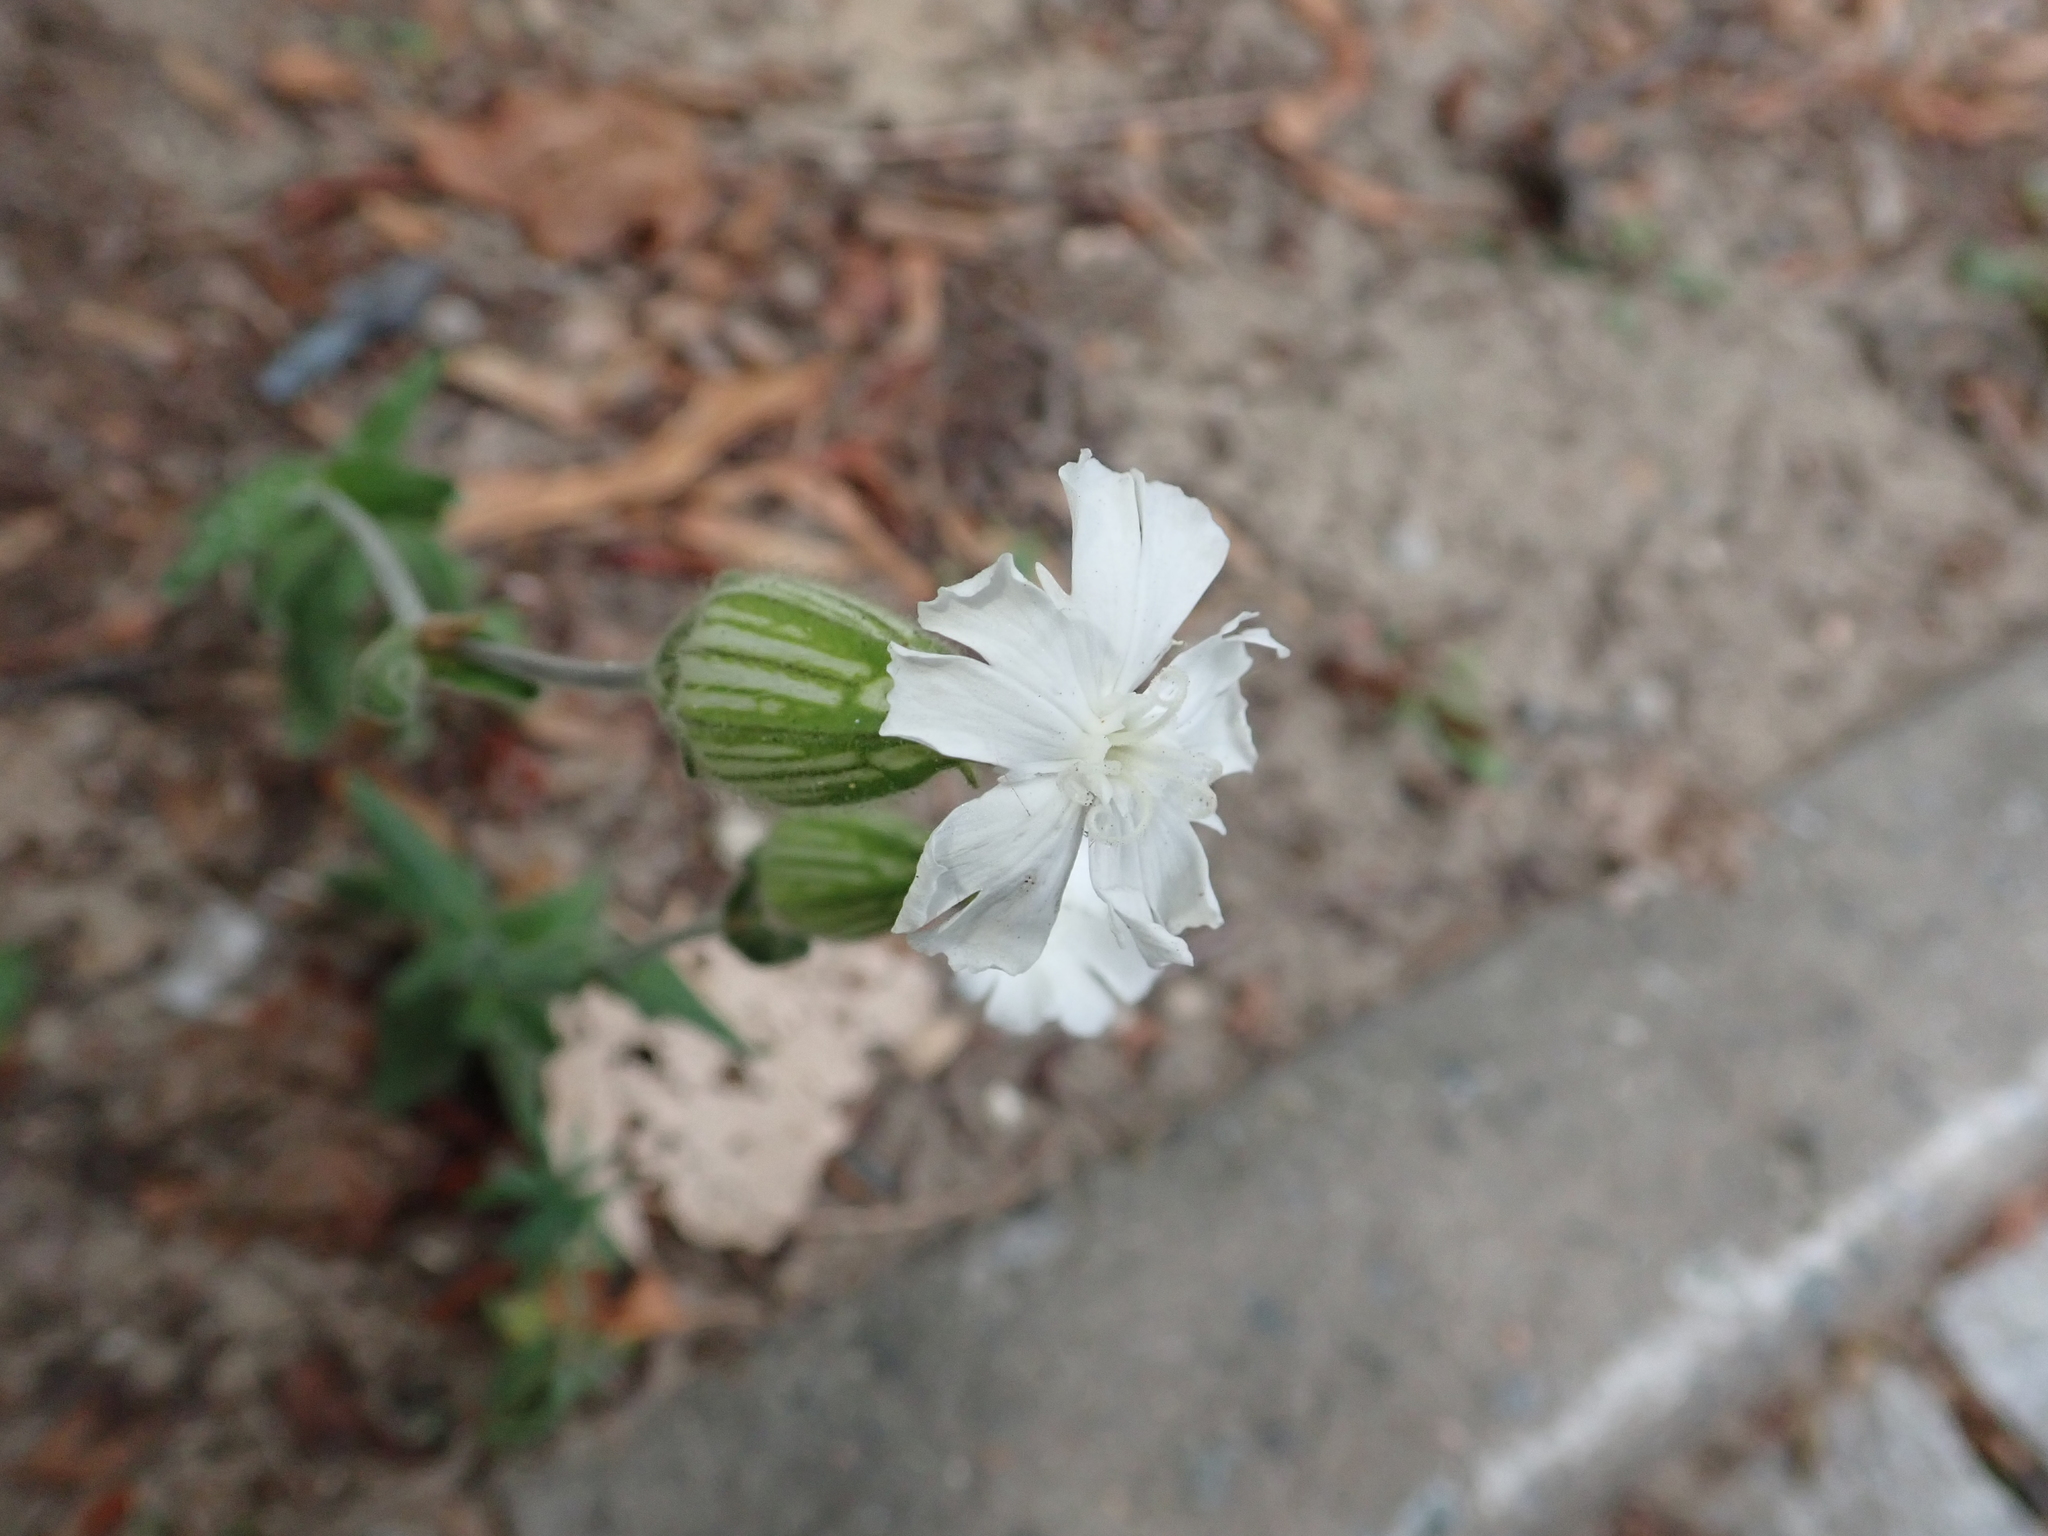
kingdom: Plantae
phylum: Tracheophyta
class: Magnoliopsida
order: Caryophyllales
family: Caryophyllaceae
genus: Silene
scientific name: Silene latifolia
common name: White campion
